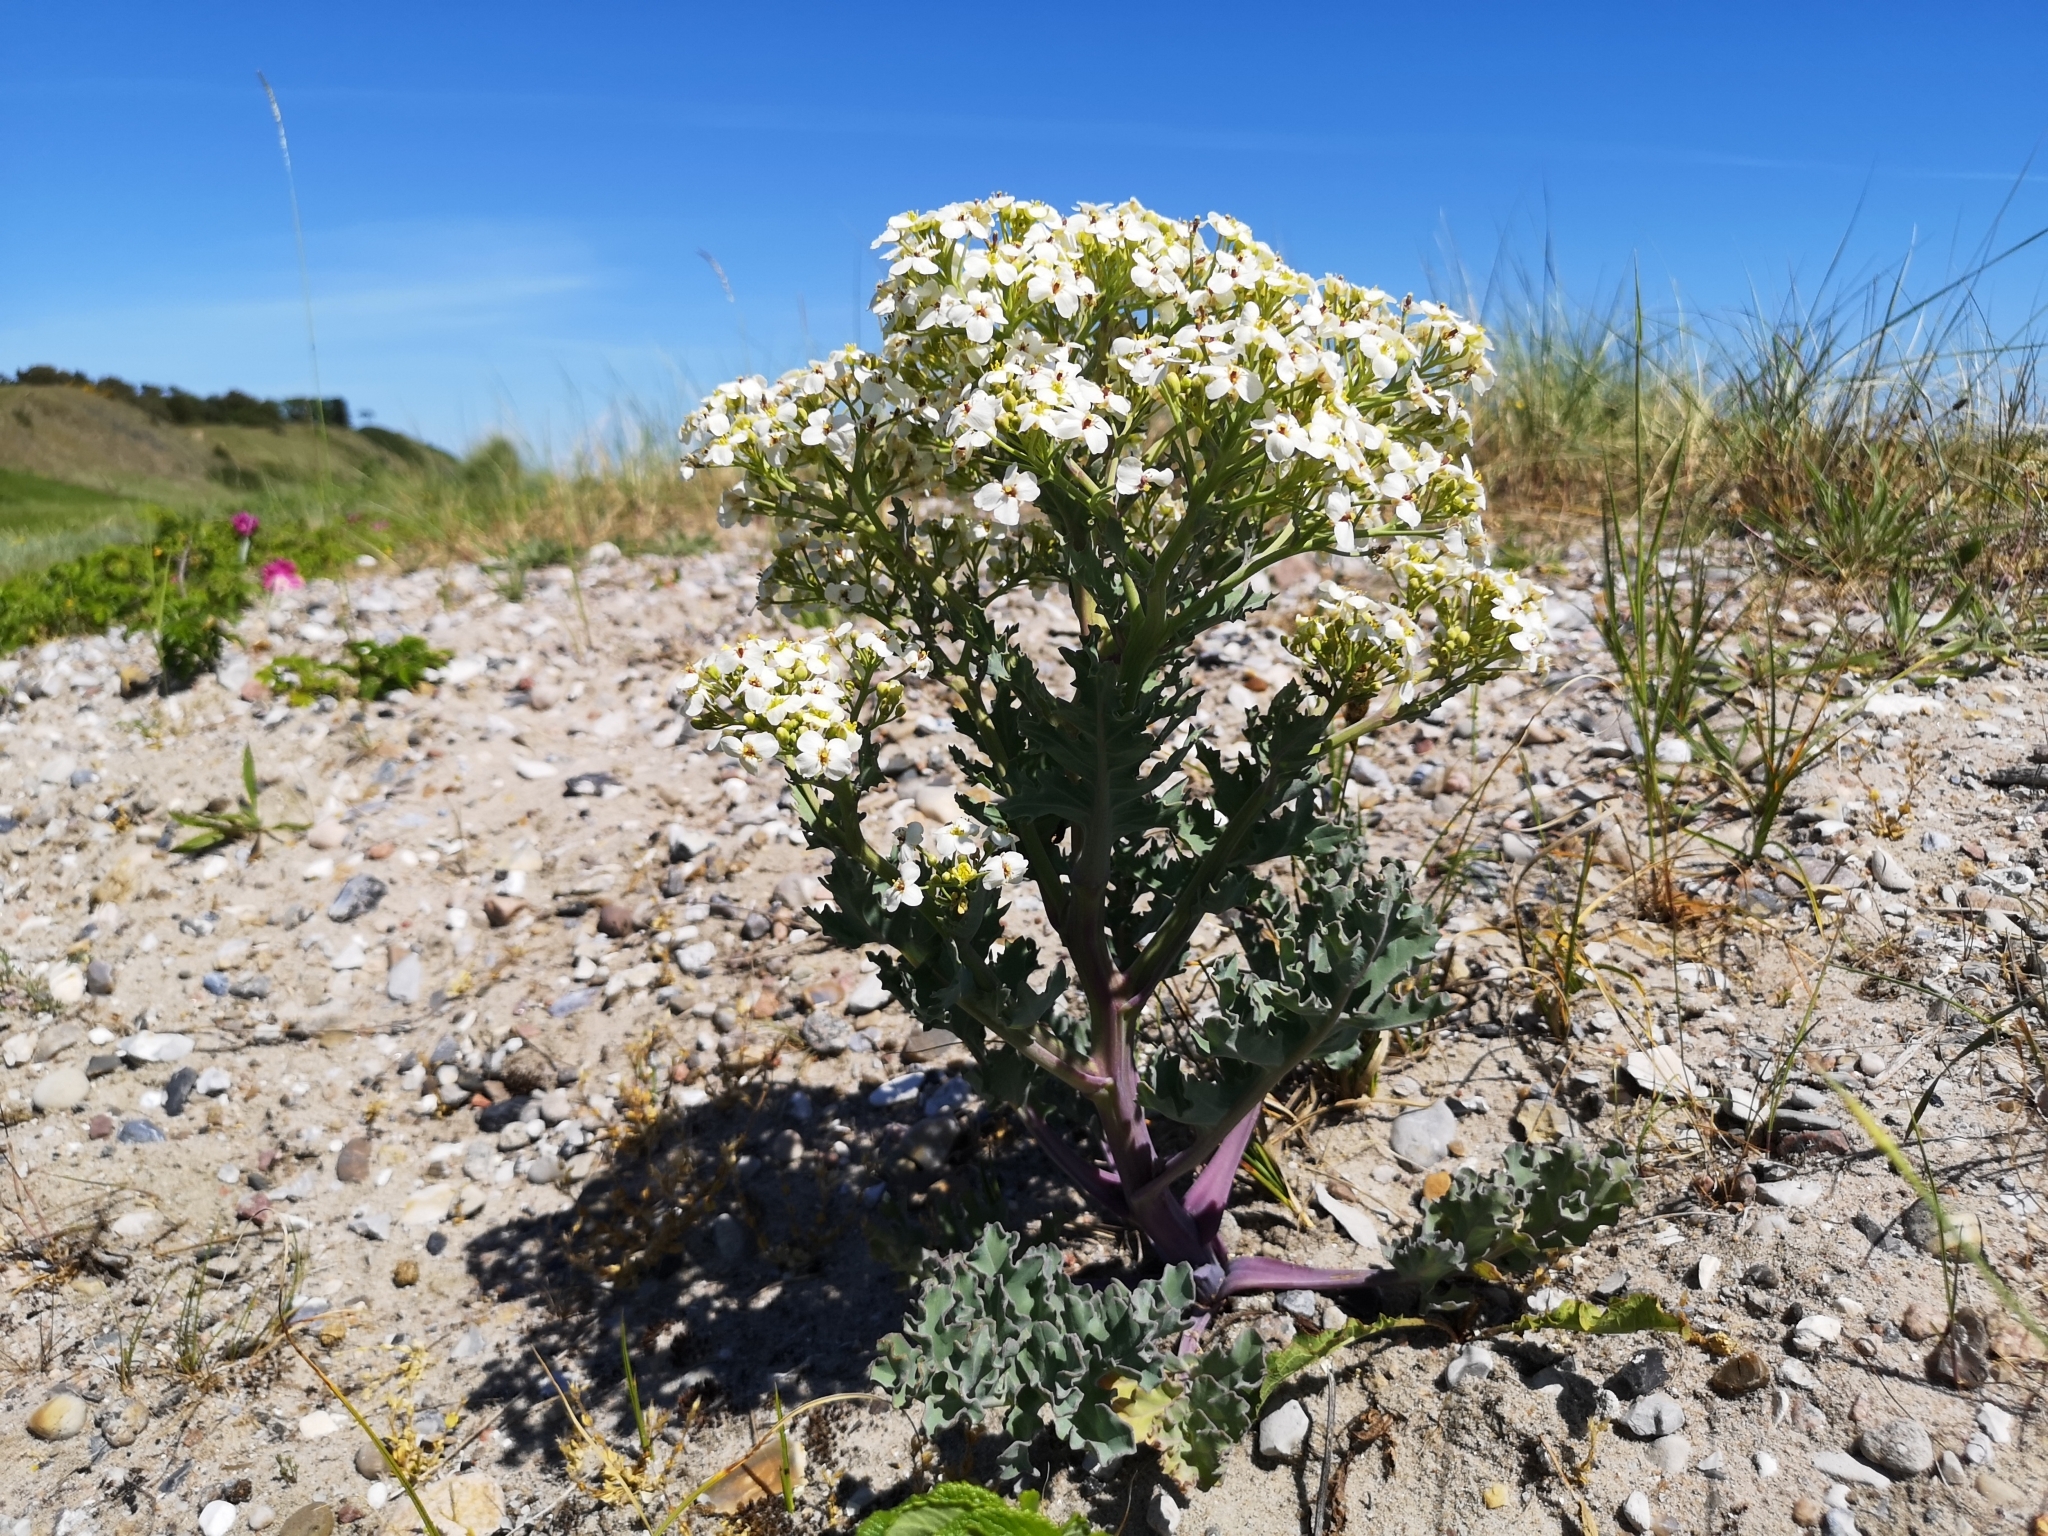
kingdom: Plantae
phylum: Tracheophyta
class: Magnoliopsida
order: Brassicales
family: Brassicaceae
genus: Crambe
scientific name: Crambe maritima
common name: Sea-kale
